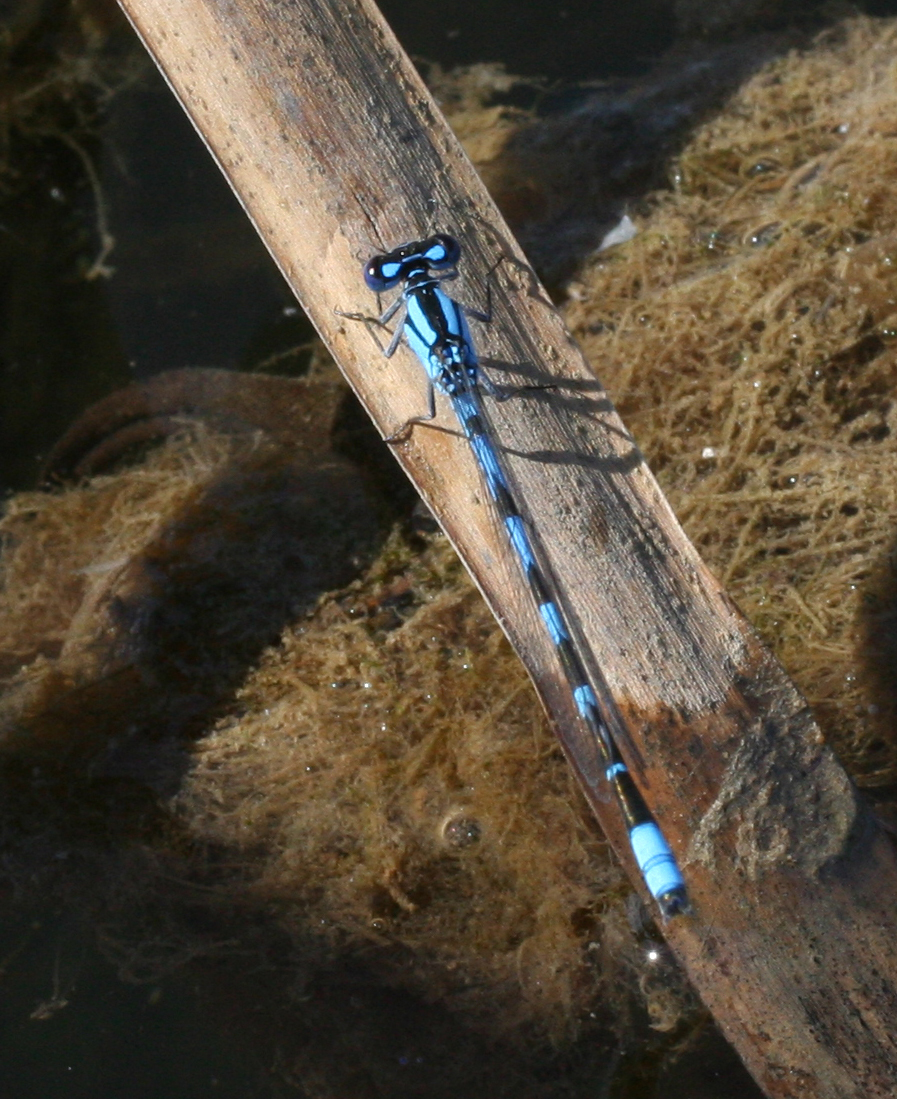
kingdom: Animalia
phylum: Arthropoda
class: Insecta
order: Odonata
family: Coenagrionidae
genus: Enallagma
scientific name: Enallagma cyathigerum
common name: Common blue damselfly
